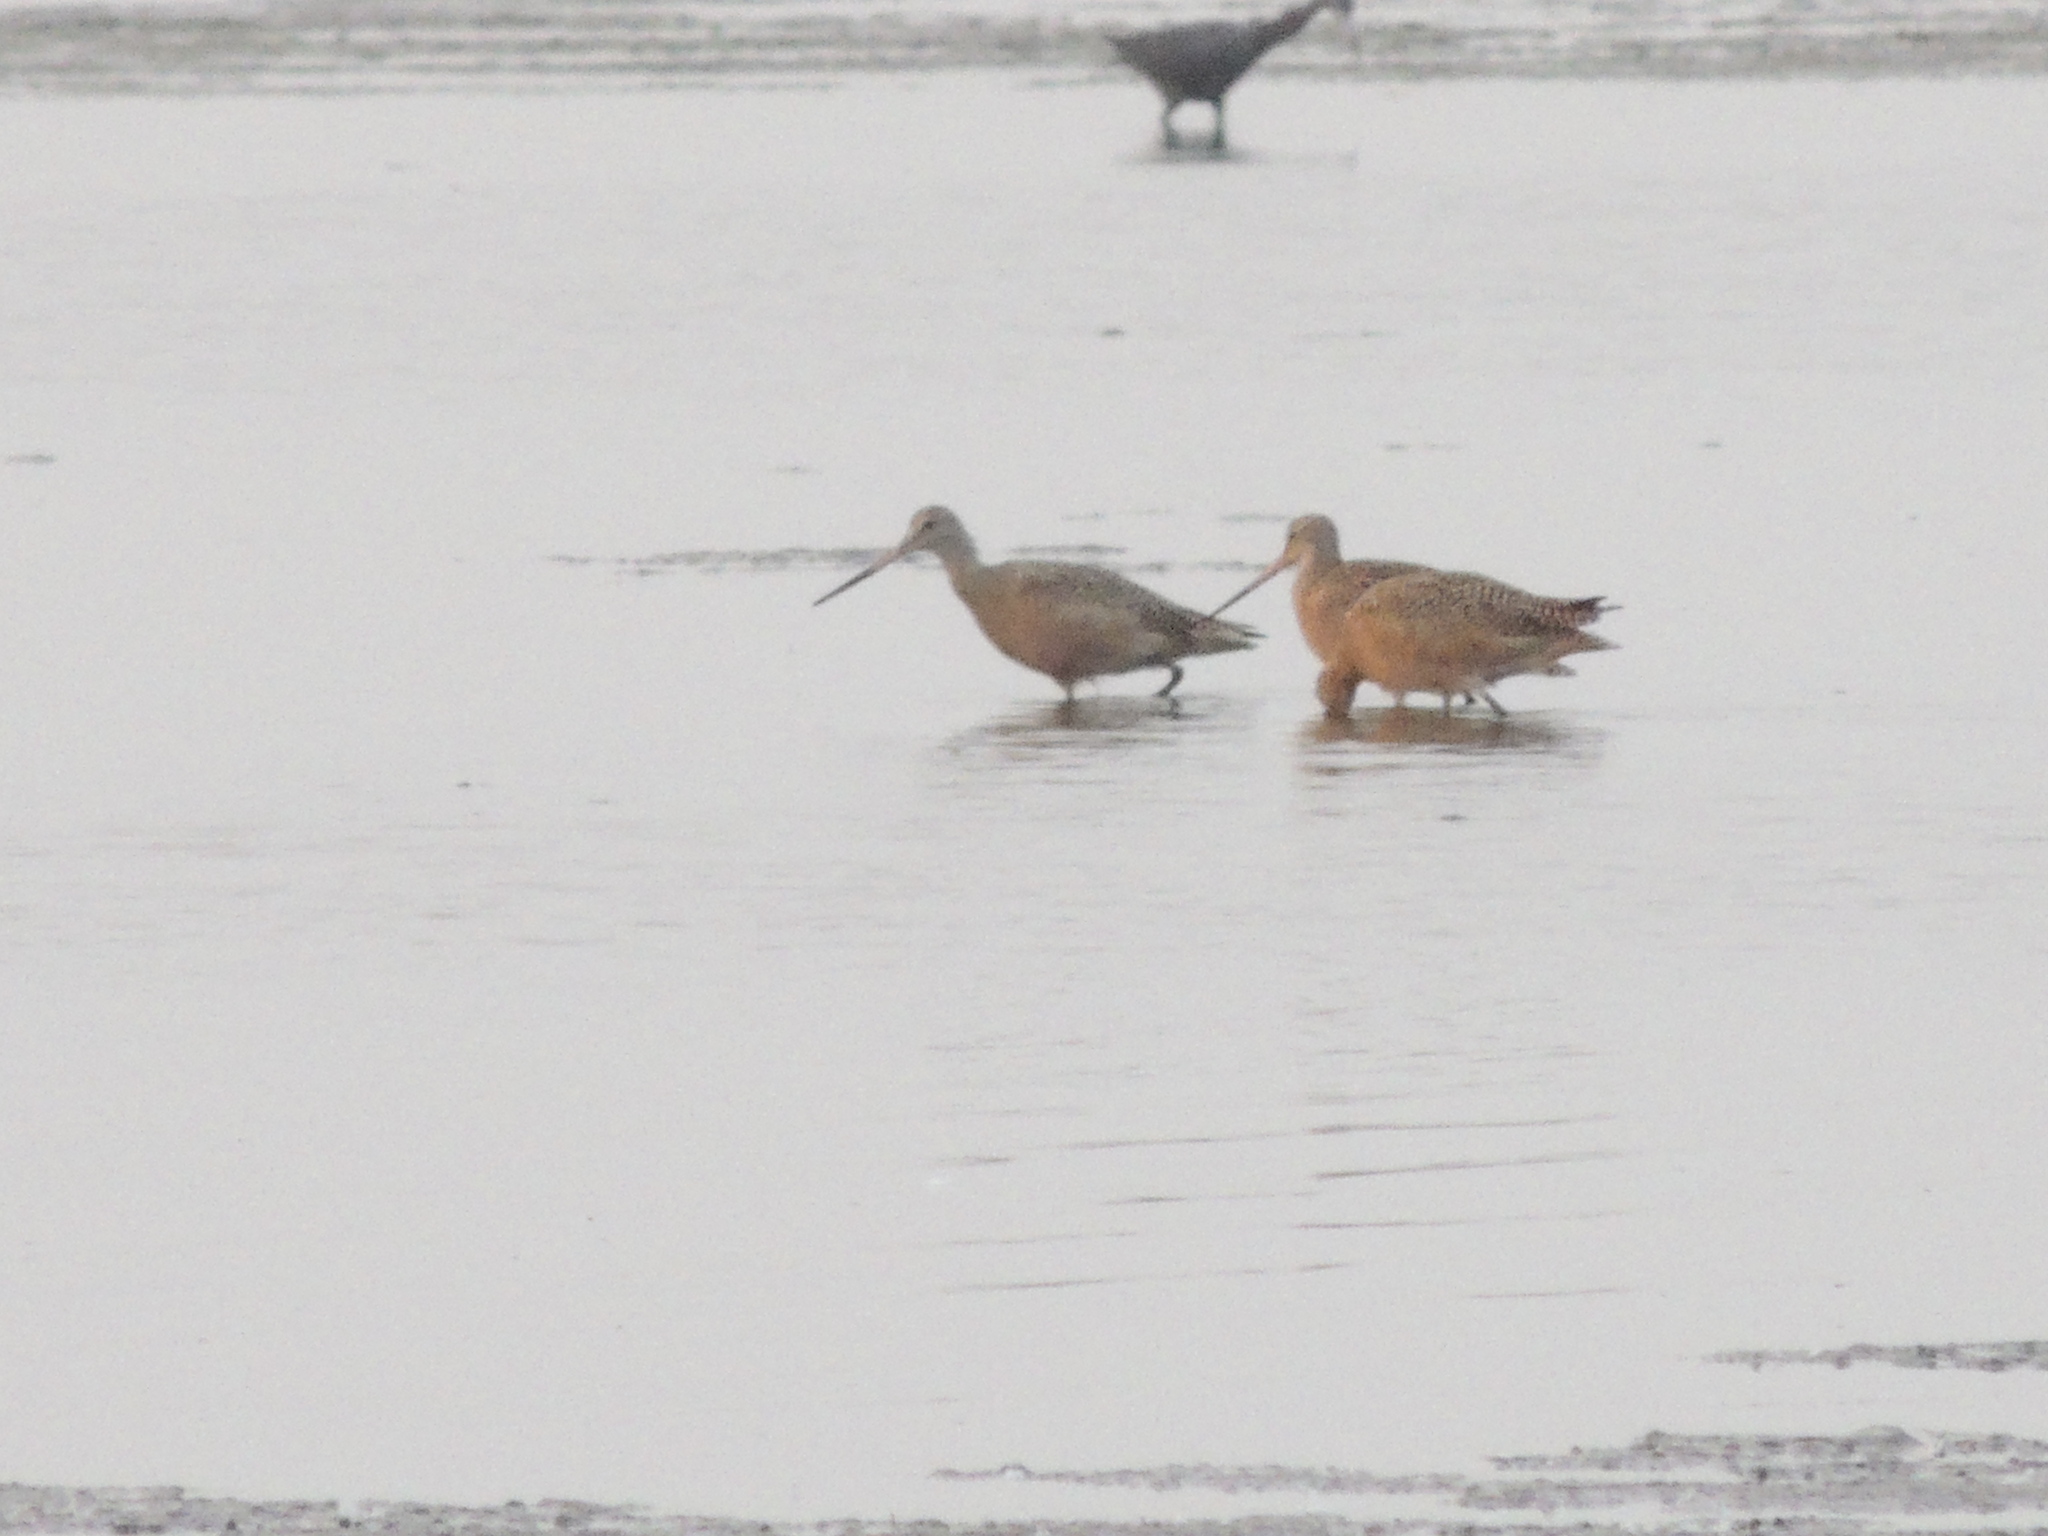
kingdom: Animalia
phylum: Chordata
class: Aves
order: Charadriiformes
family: Scolopacidae
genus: Limosa
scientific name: Limosa fedoa
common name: Marbled godwit
